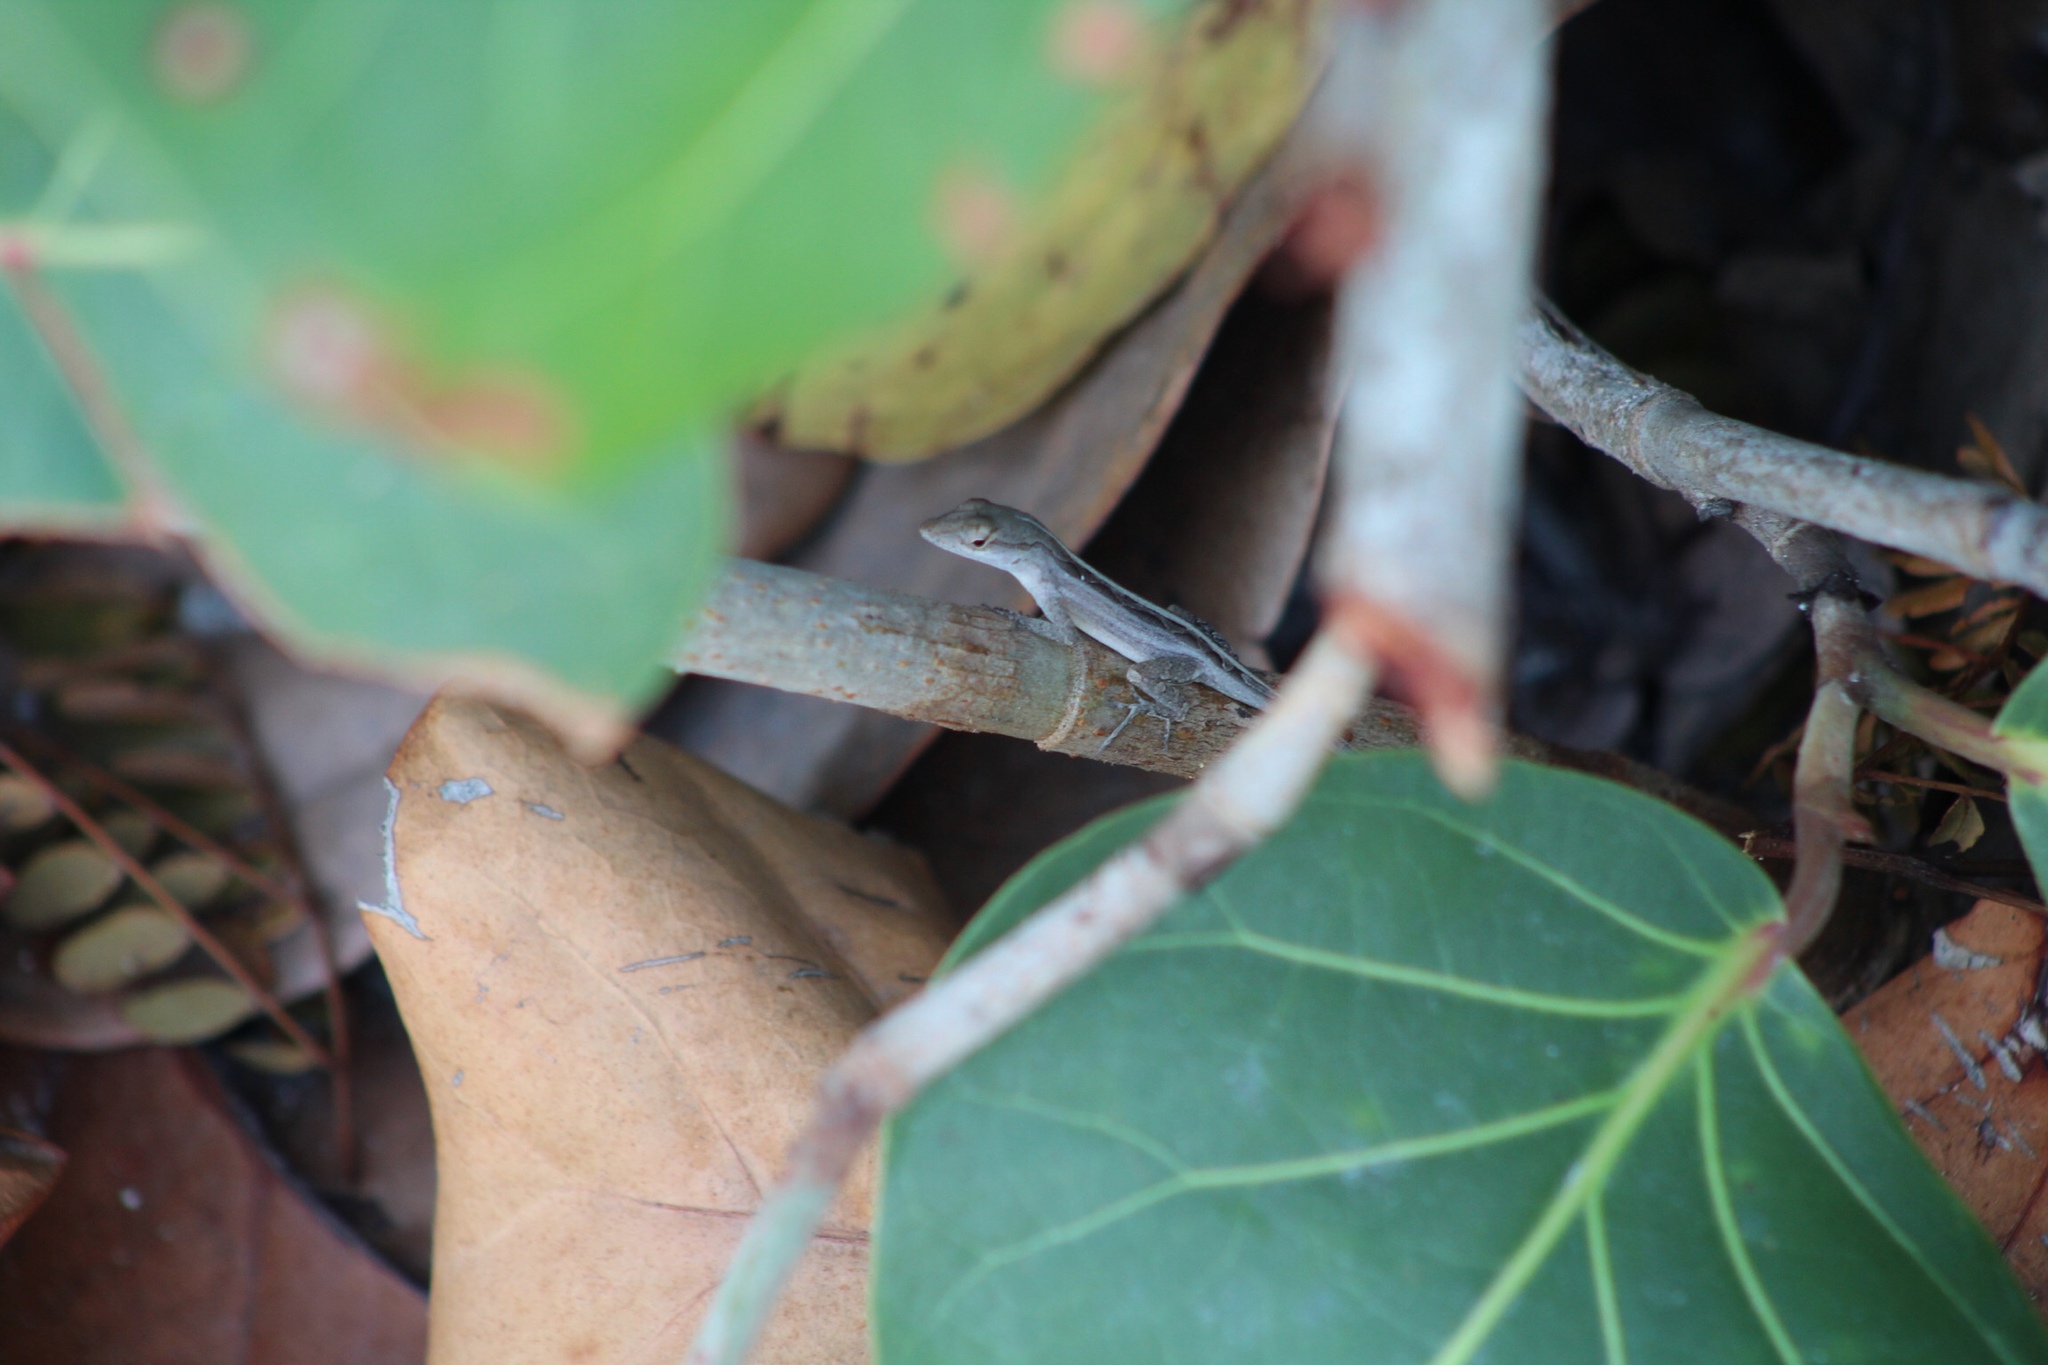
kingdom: Animalia
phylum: Chordata
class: Squamata
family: Dactyloidae
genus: Anolis
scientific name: Anolis sagrei
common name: Brown anole
